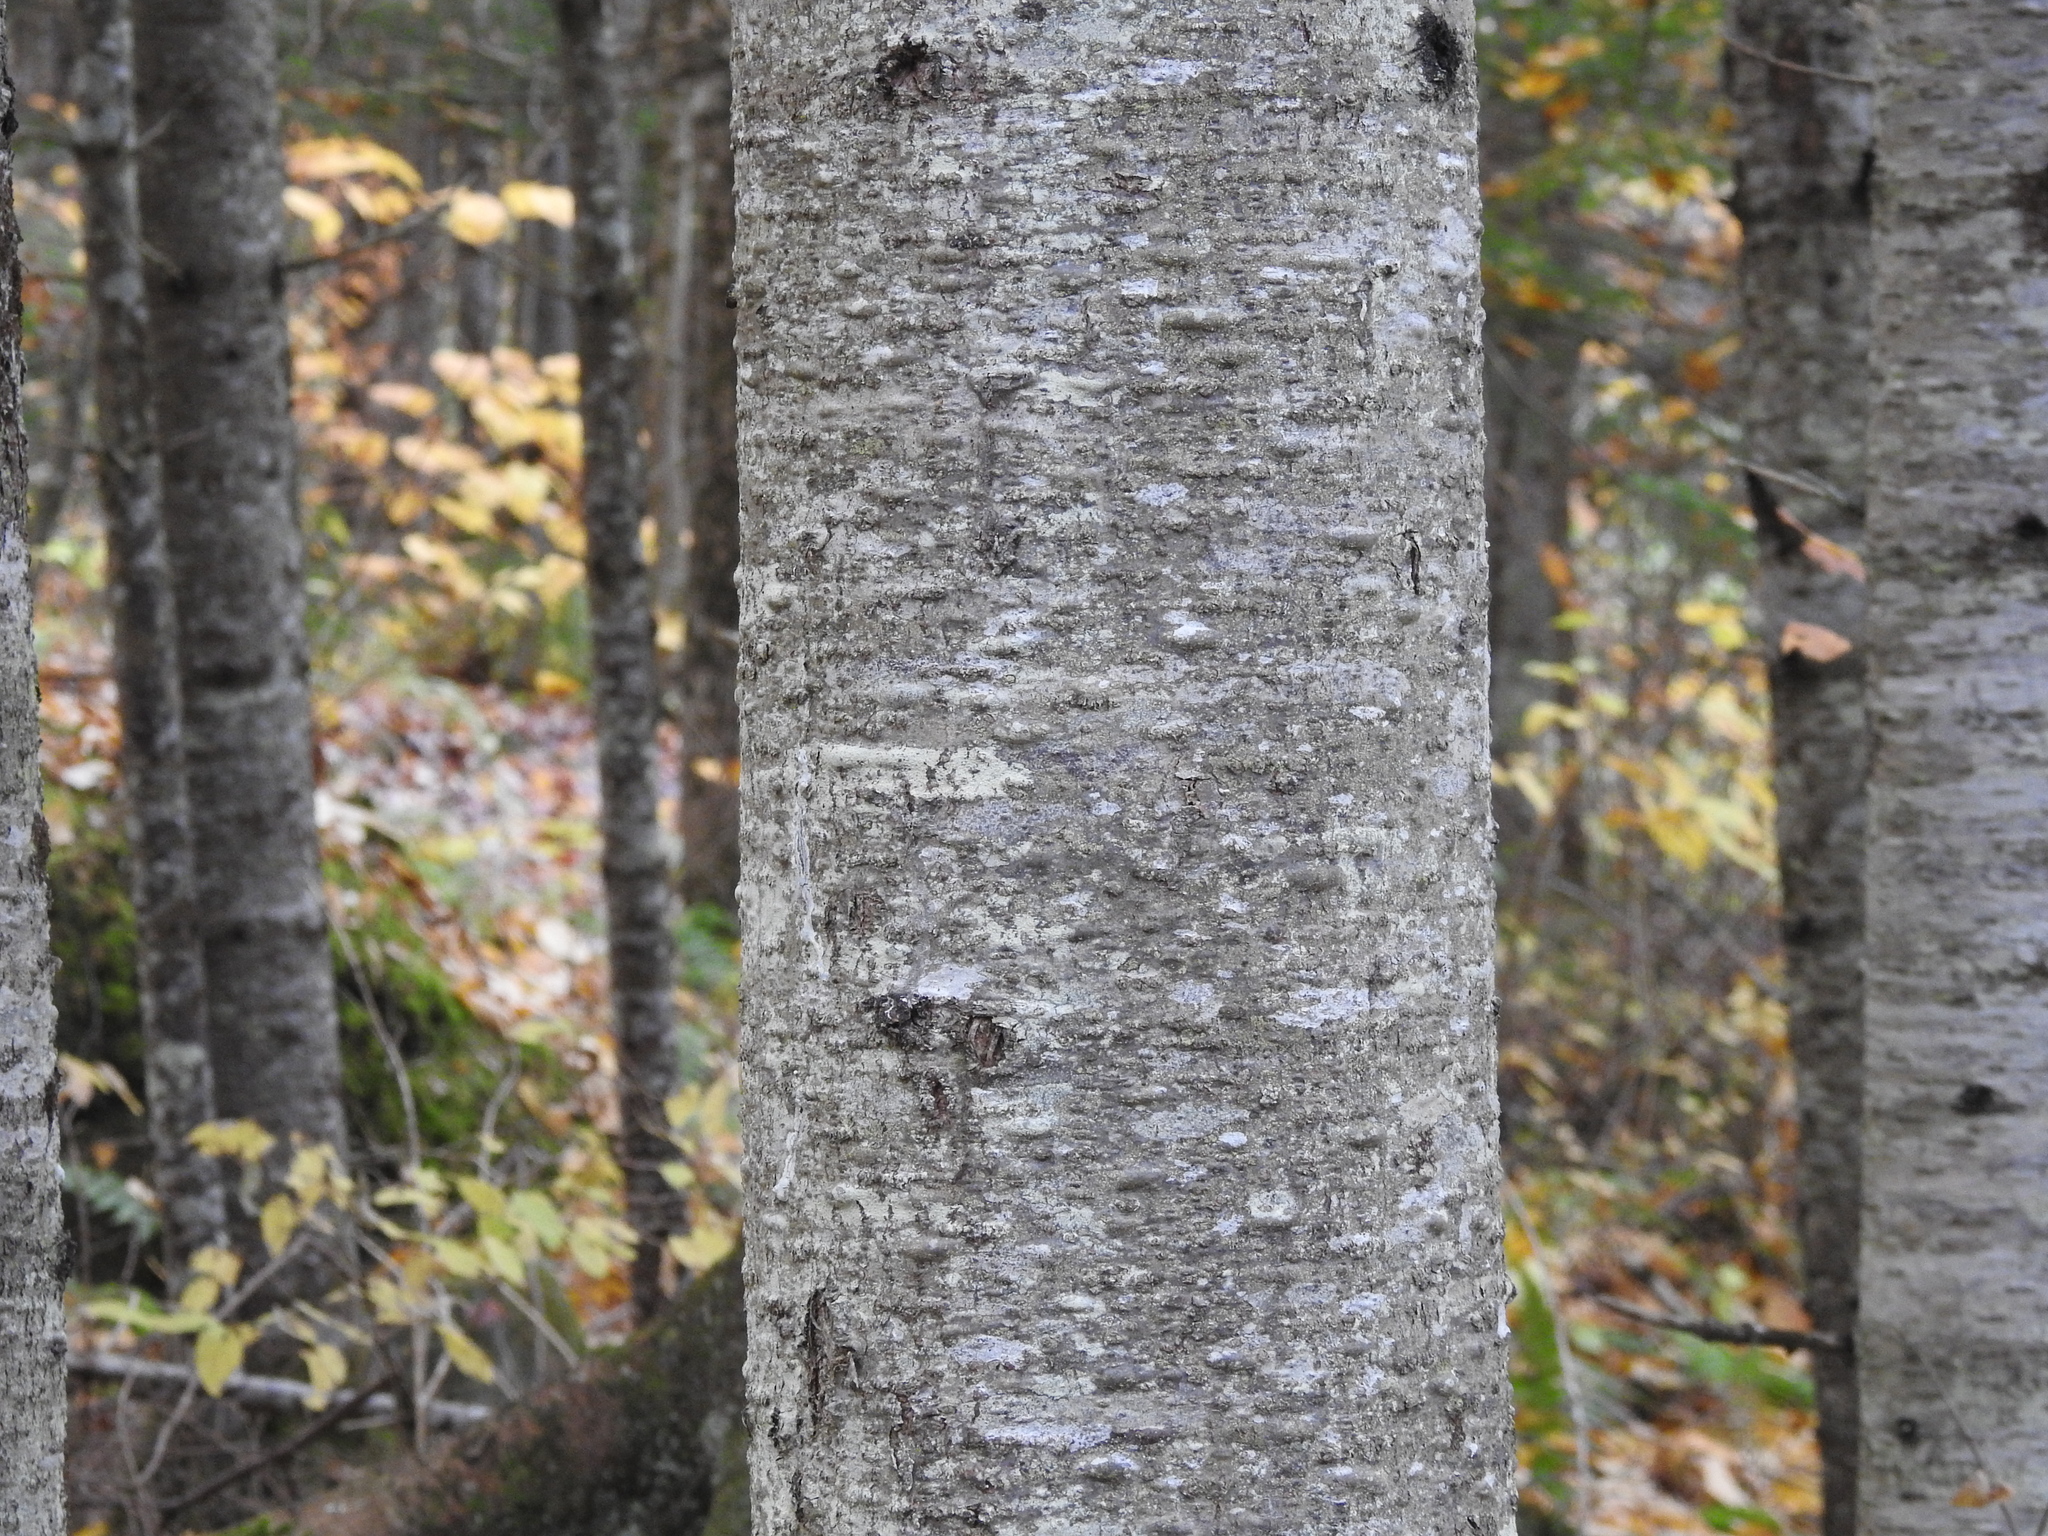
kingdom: Plantae
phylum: Tracheophyta
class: Pinopsida
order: Pinales
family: Pinaceae
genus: Abies
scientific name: Abies balsamea
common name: Balsam fir
